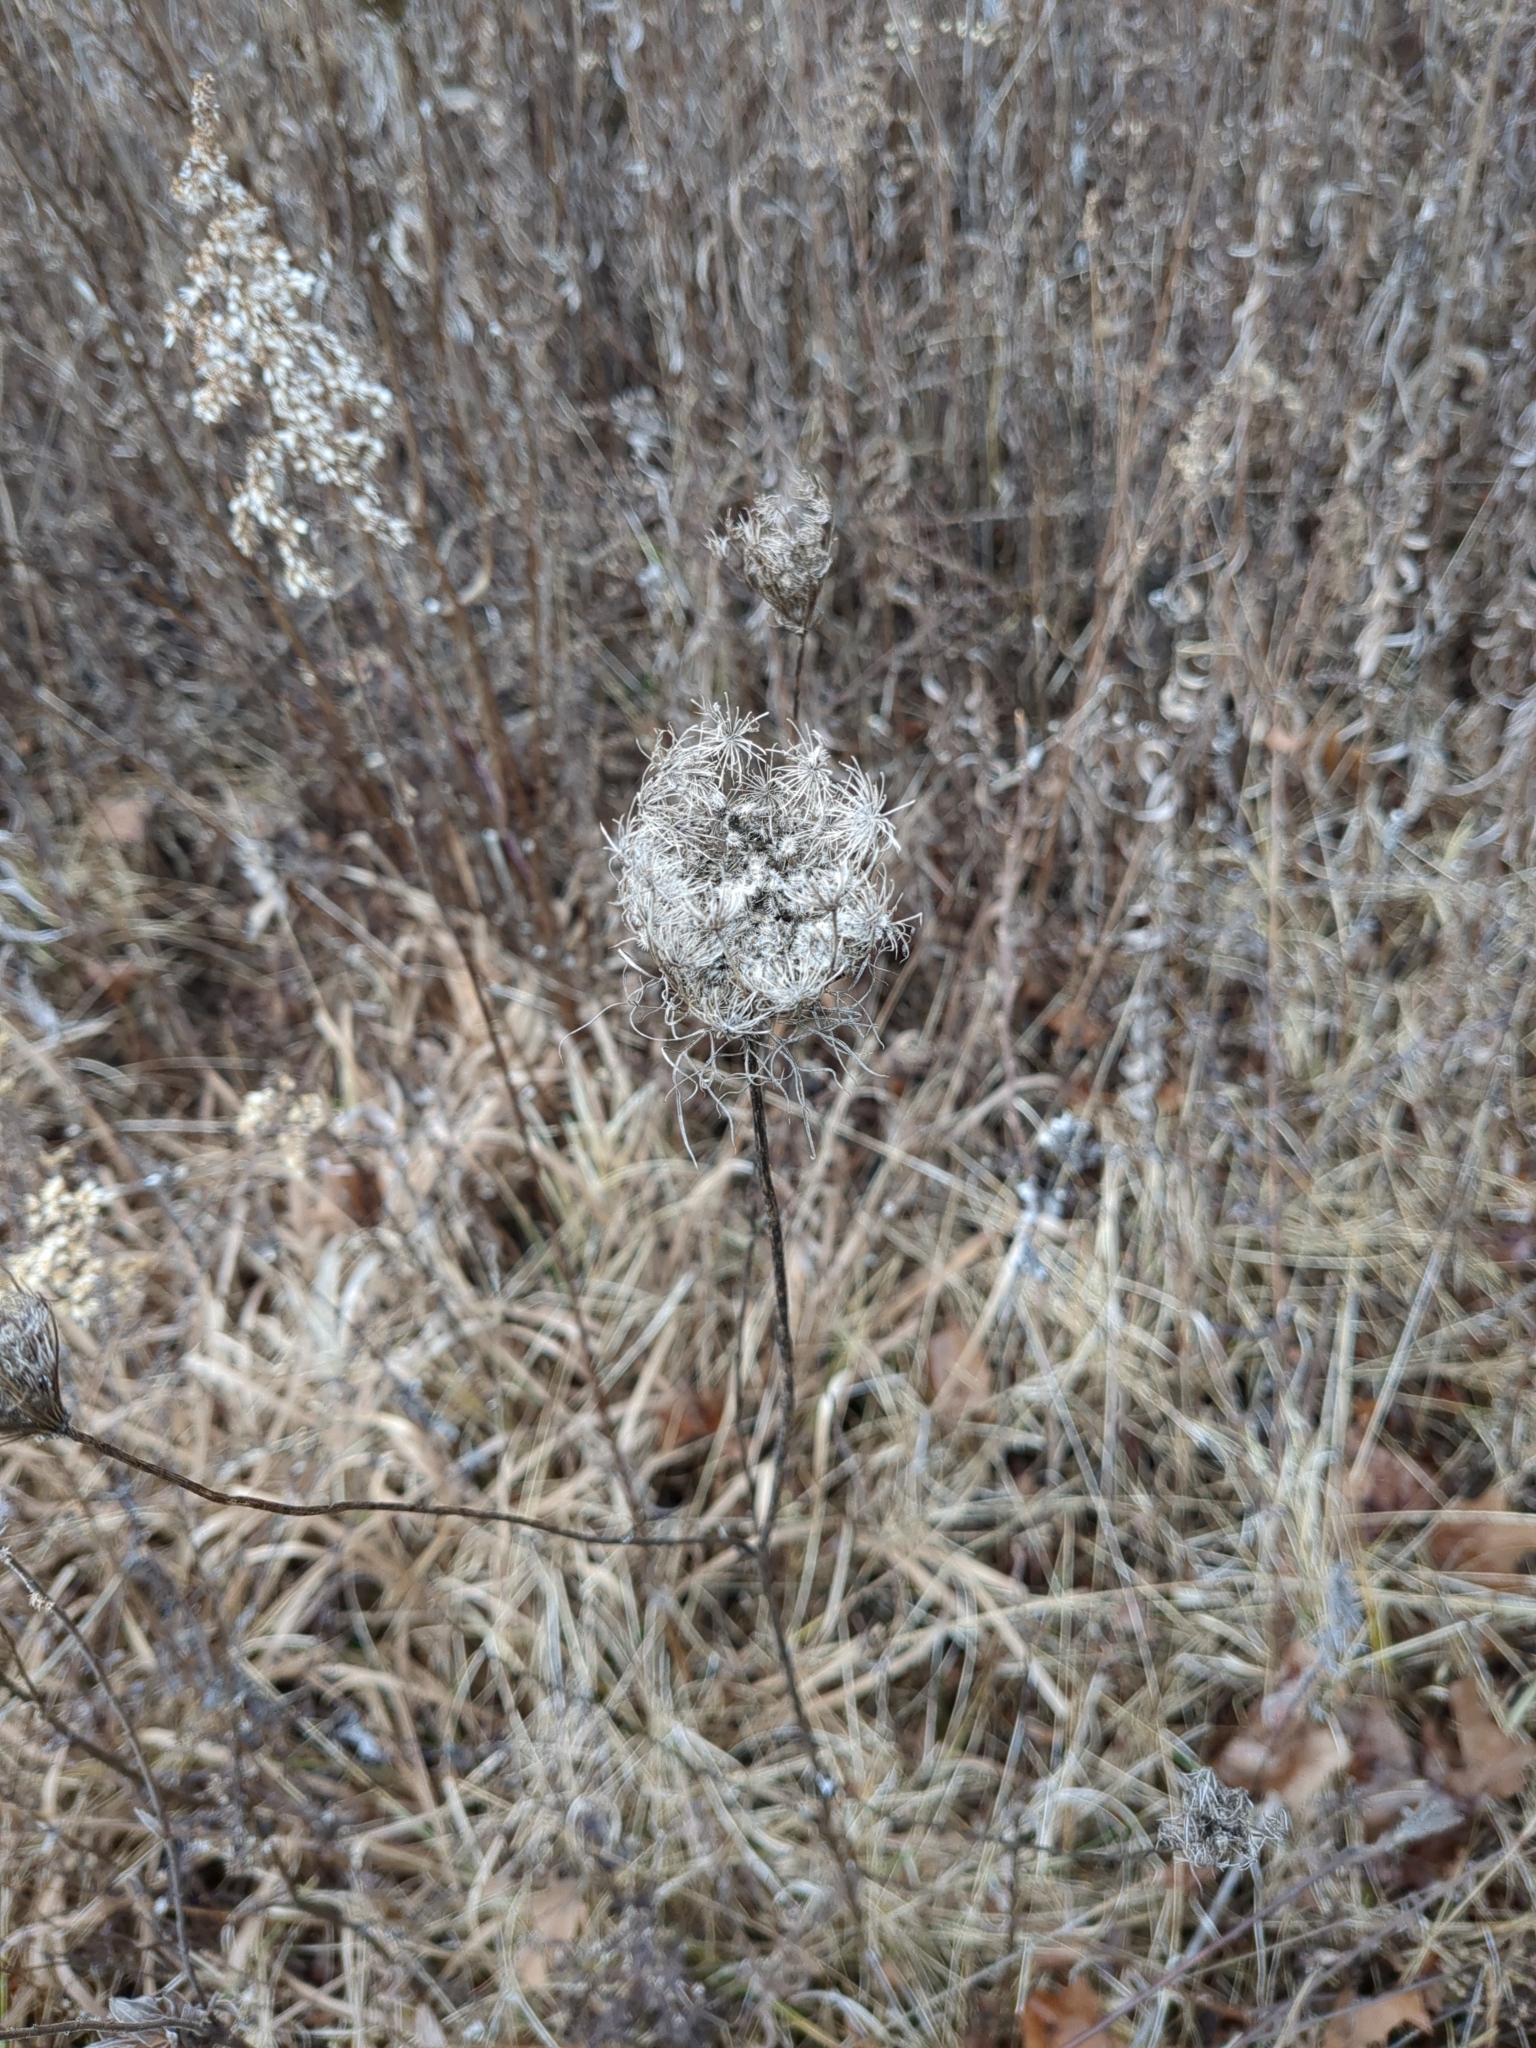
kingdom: Plantae
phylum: Tracheophyta
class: Magnoliopsida
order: Apiales
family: Apiaceae
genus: Daucus
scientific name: Daucus carota
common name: Wild carrot
